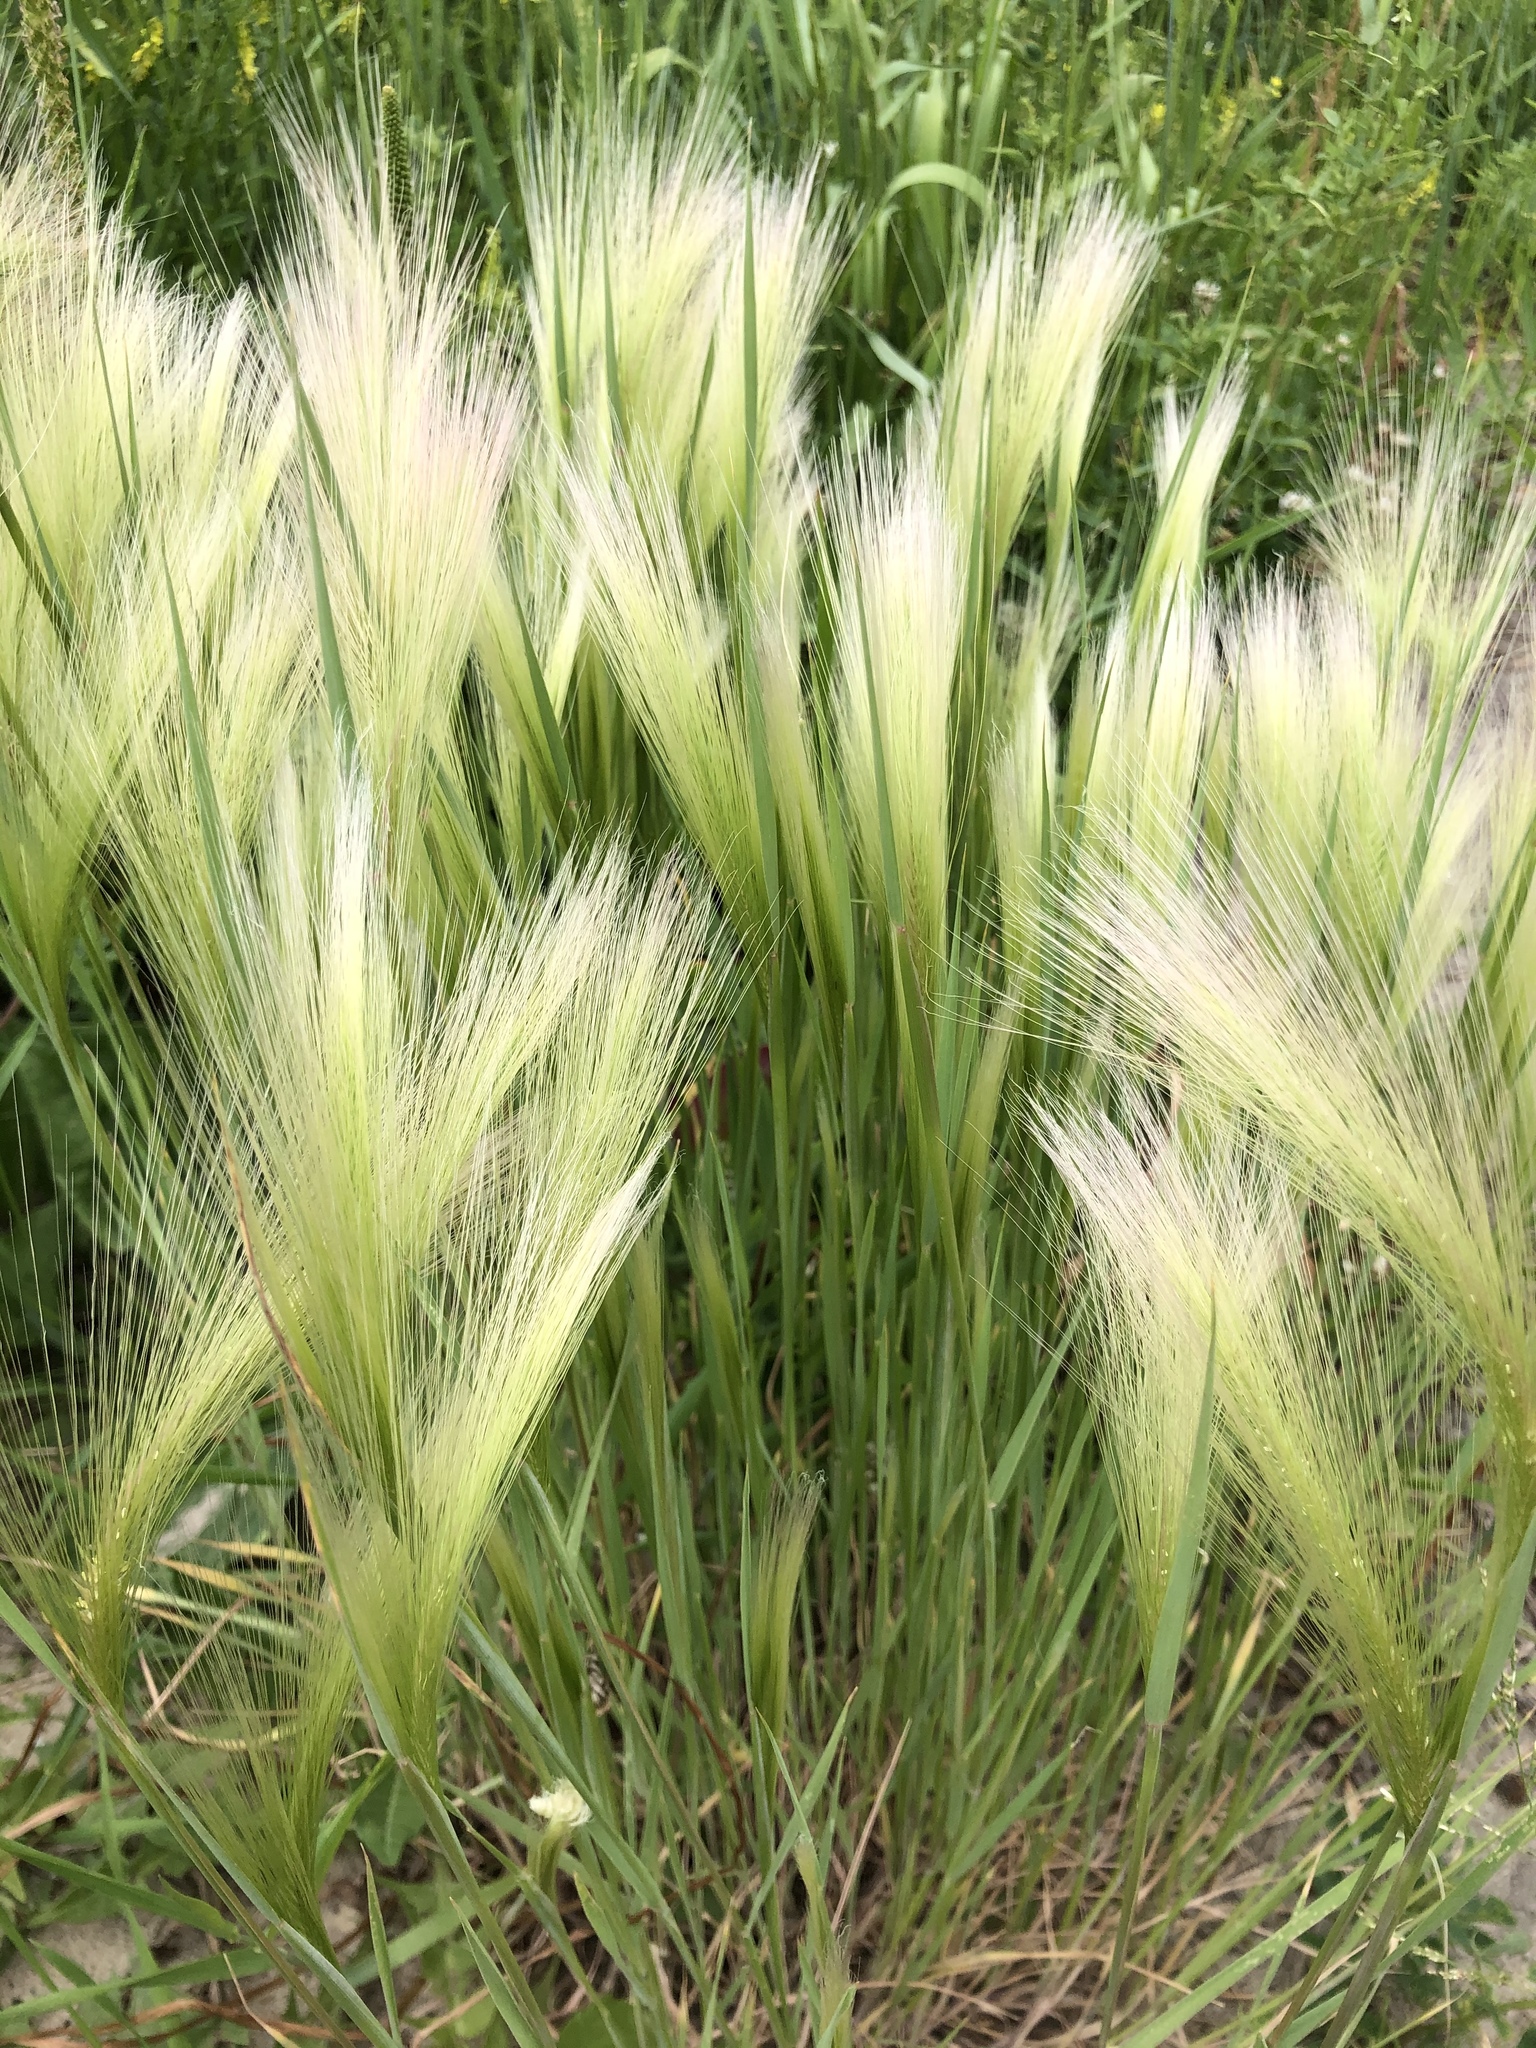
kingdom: Plantae
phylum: Tracheophyta
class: Liliopsida
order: Poales
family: Poaceae
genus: Hordeum
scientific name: Hordeum jubatum
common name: Foxtail barley
